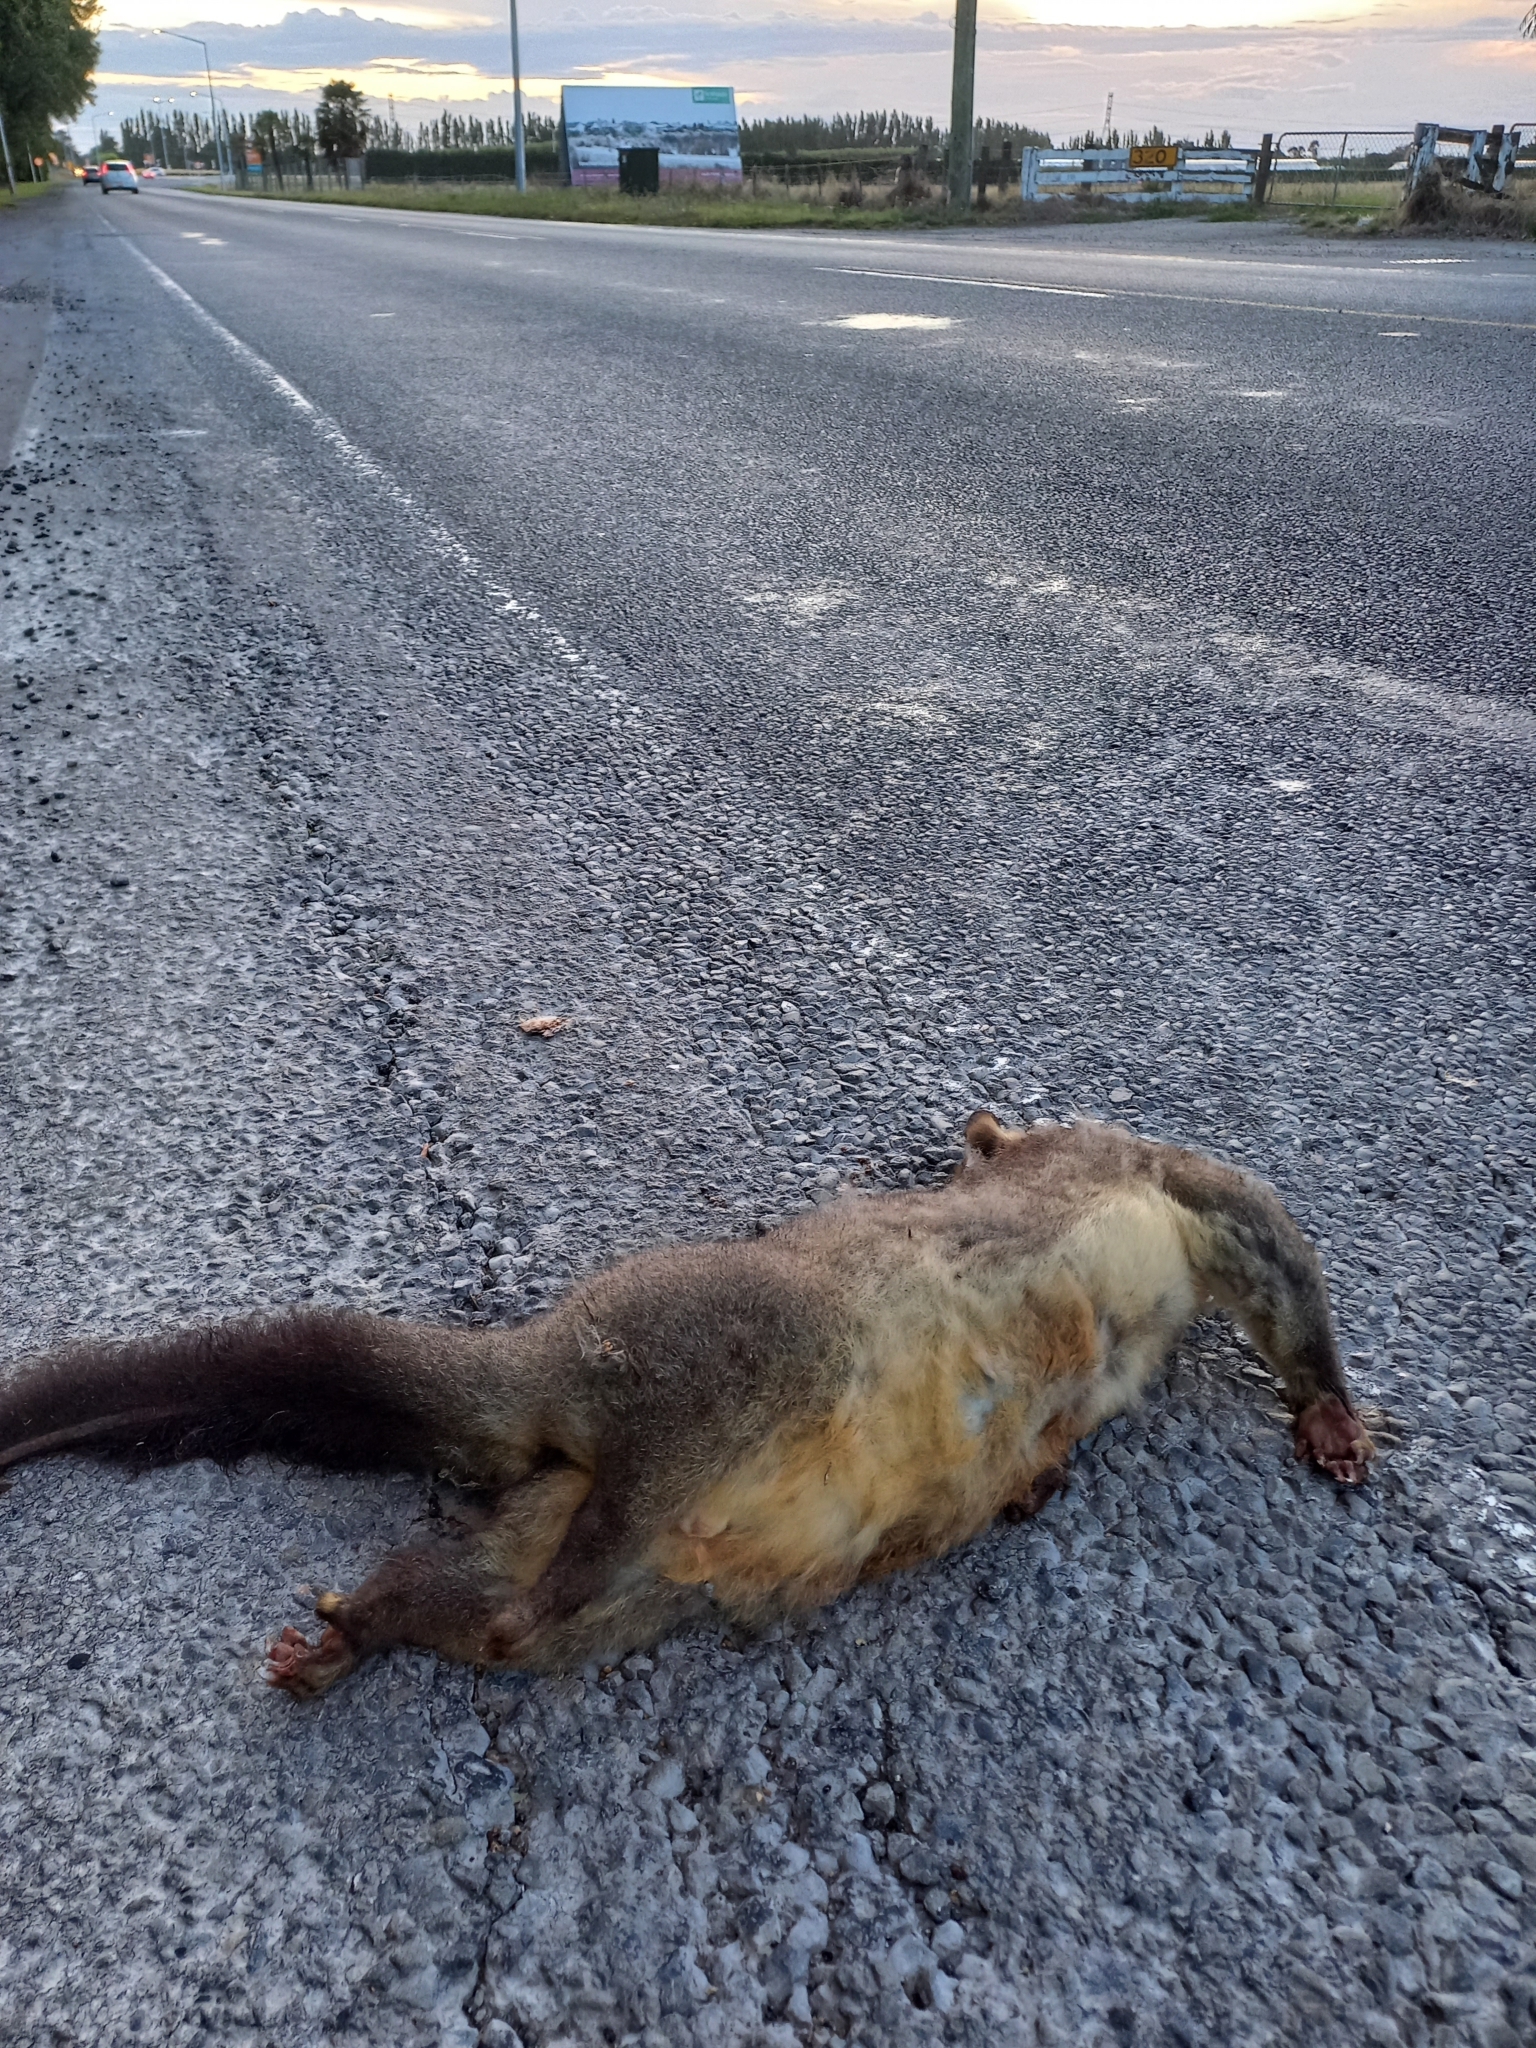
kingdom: Animalia
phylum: Chordata
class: Mammalia
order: Diprotodontia
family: Phalangeridae
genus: Trichosurus
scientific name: Trichosurus vulpecula
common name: Common brushtail
